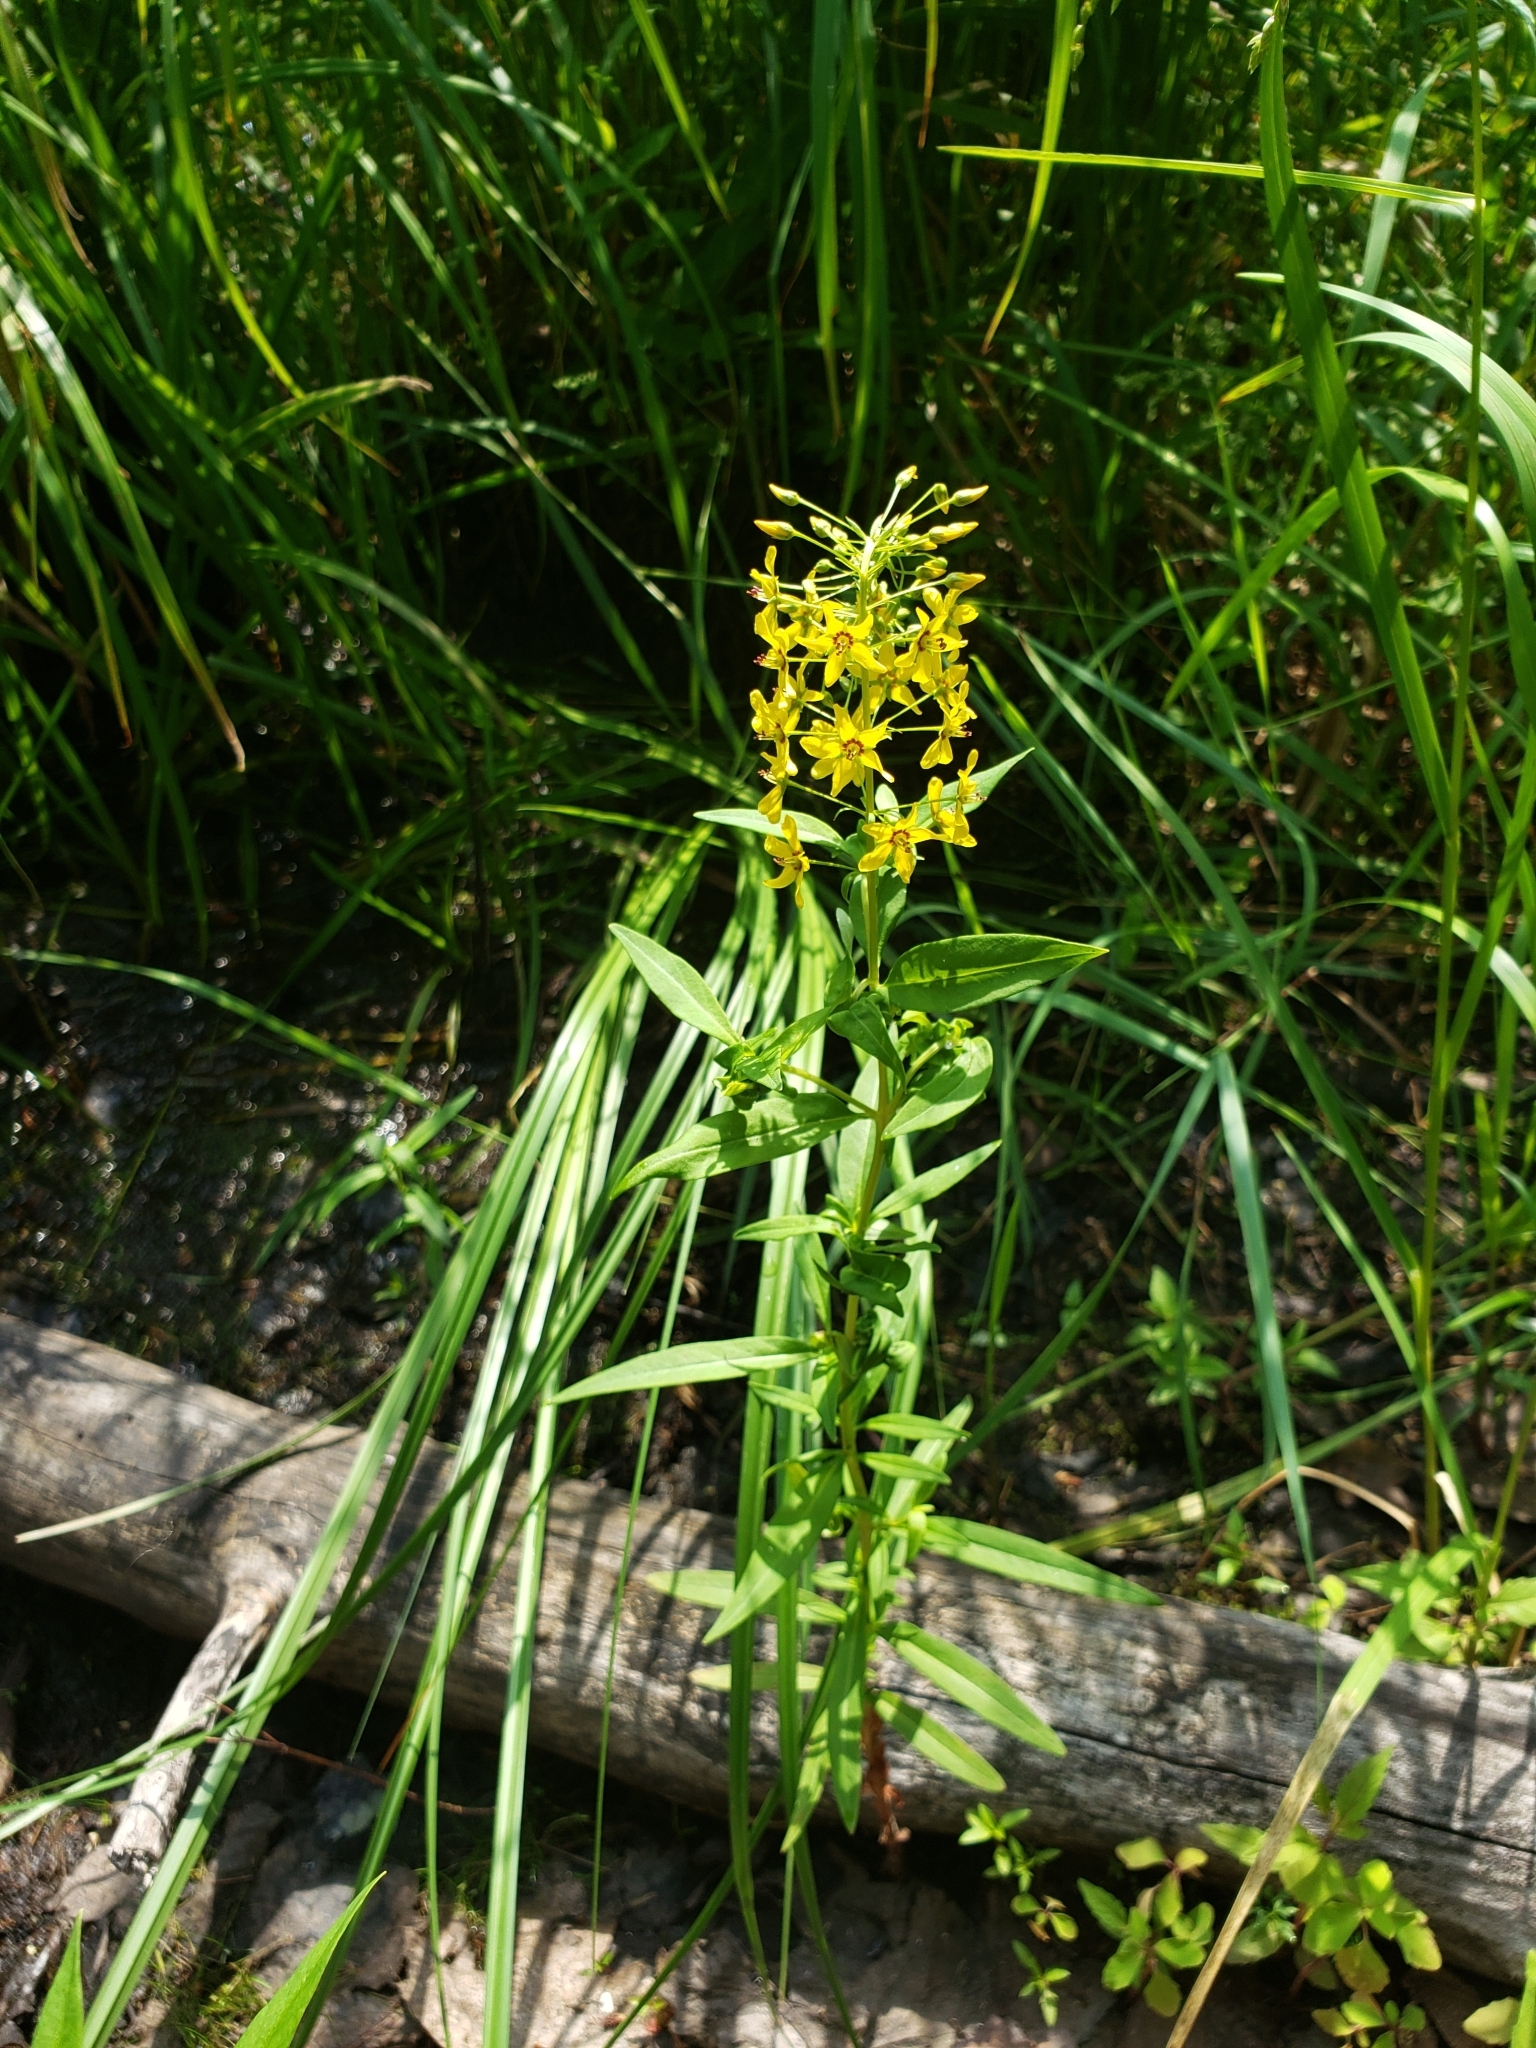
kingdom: Plantae
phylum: Tracheophyta
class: Magnoliopsida
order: Ericales
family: Primulaceae
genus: Lysimachia
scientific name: Lysimachia terrestris
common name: Lake loosestrife
